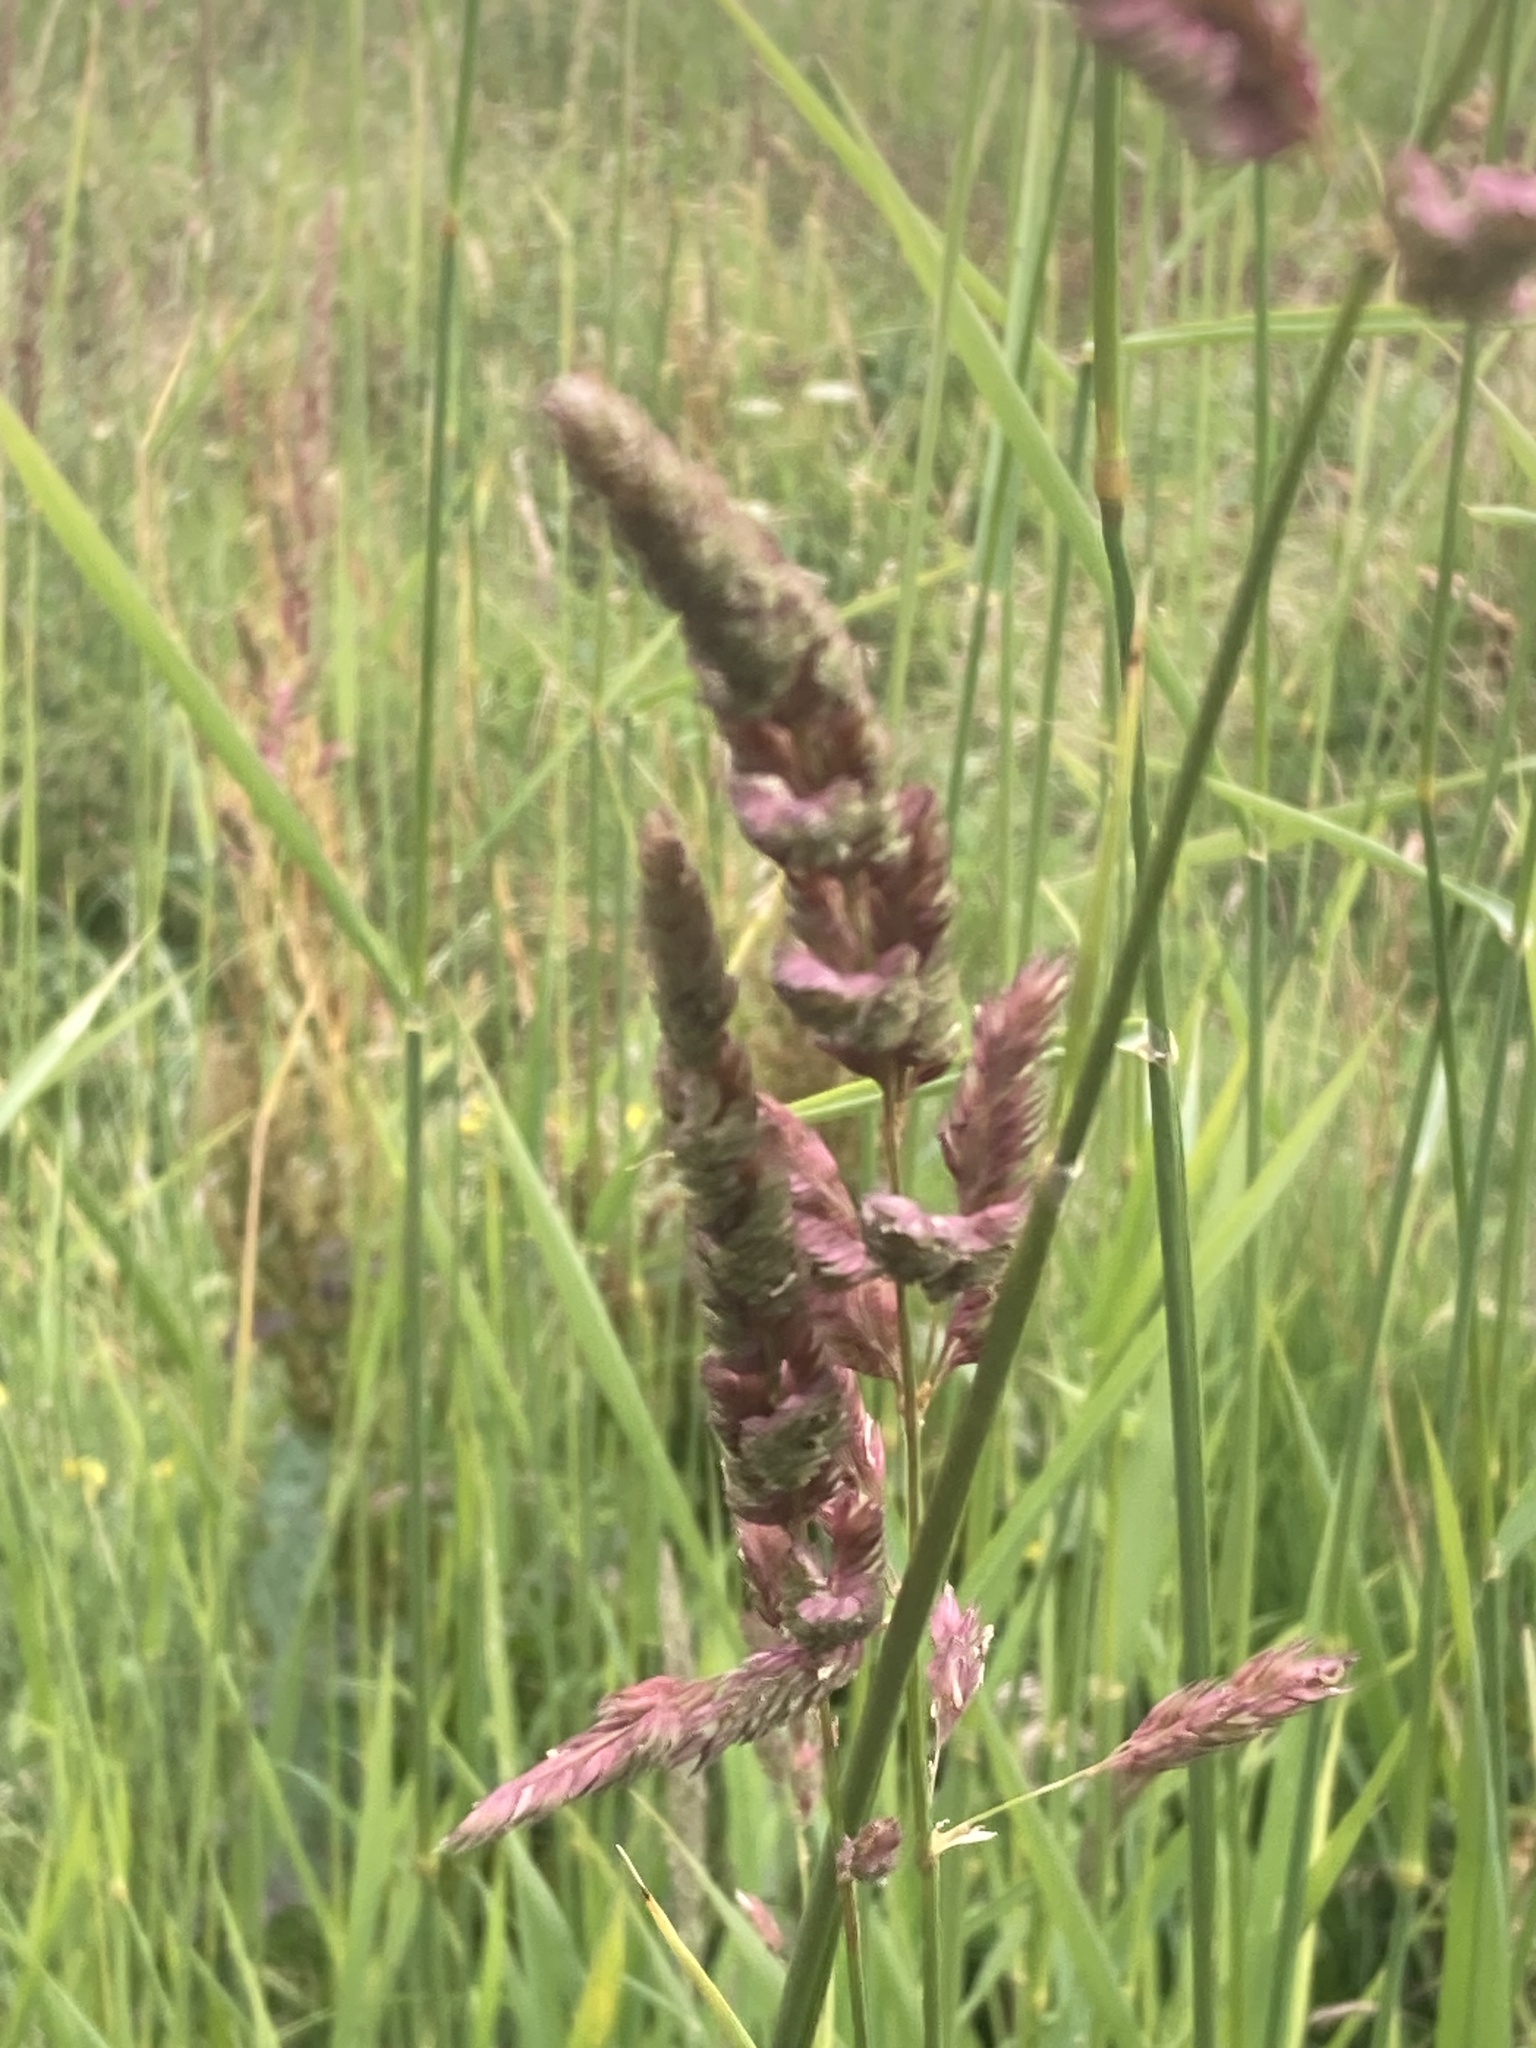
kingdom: Plantae
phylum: Tracheophyta
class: Liliopsida
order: Poales
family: Poaceae
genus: Phalaris
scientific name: Phalaris arundinacea
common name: Reed canary-grass
